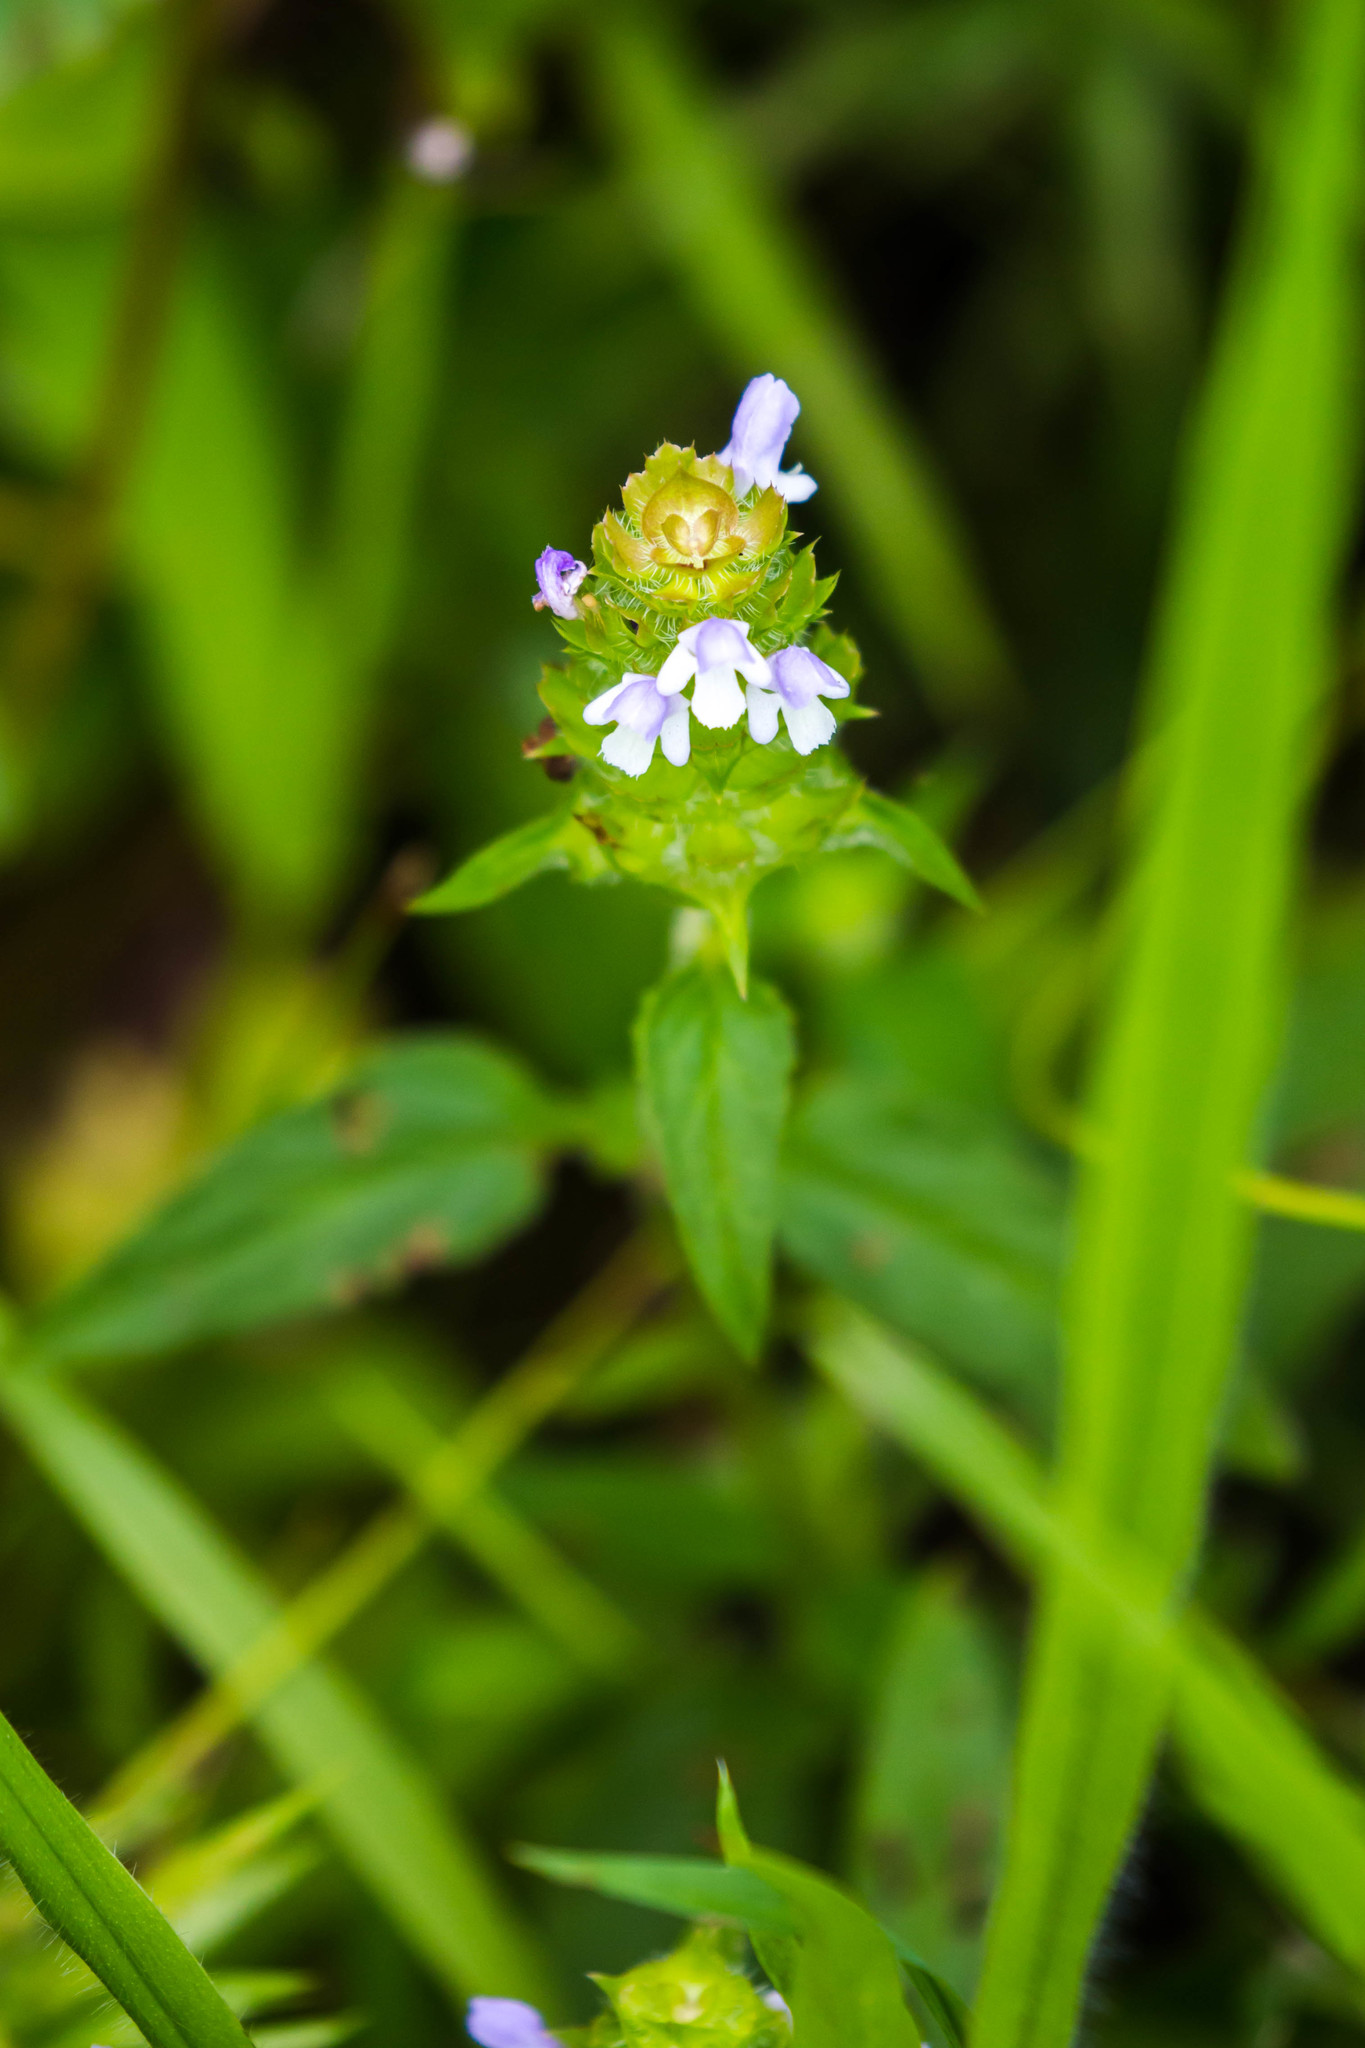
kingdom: Plantae
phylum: Tracheophyta
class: Magnoliopsida
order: Lamiales
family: Lamiaceae
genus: Prunella
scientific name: Prunella vulgaris
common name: Heal-all
